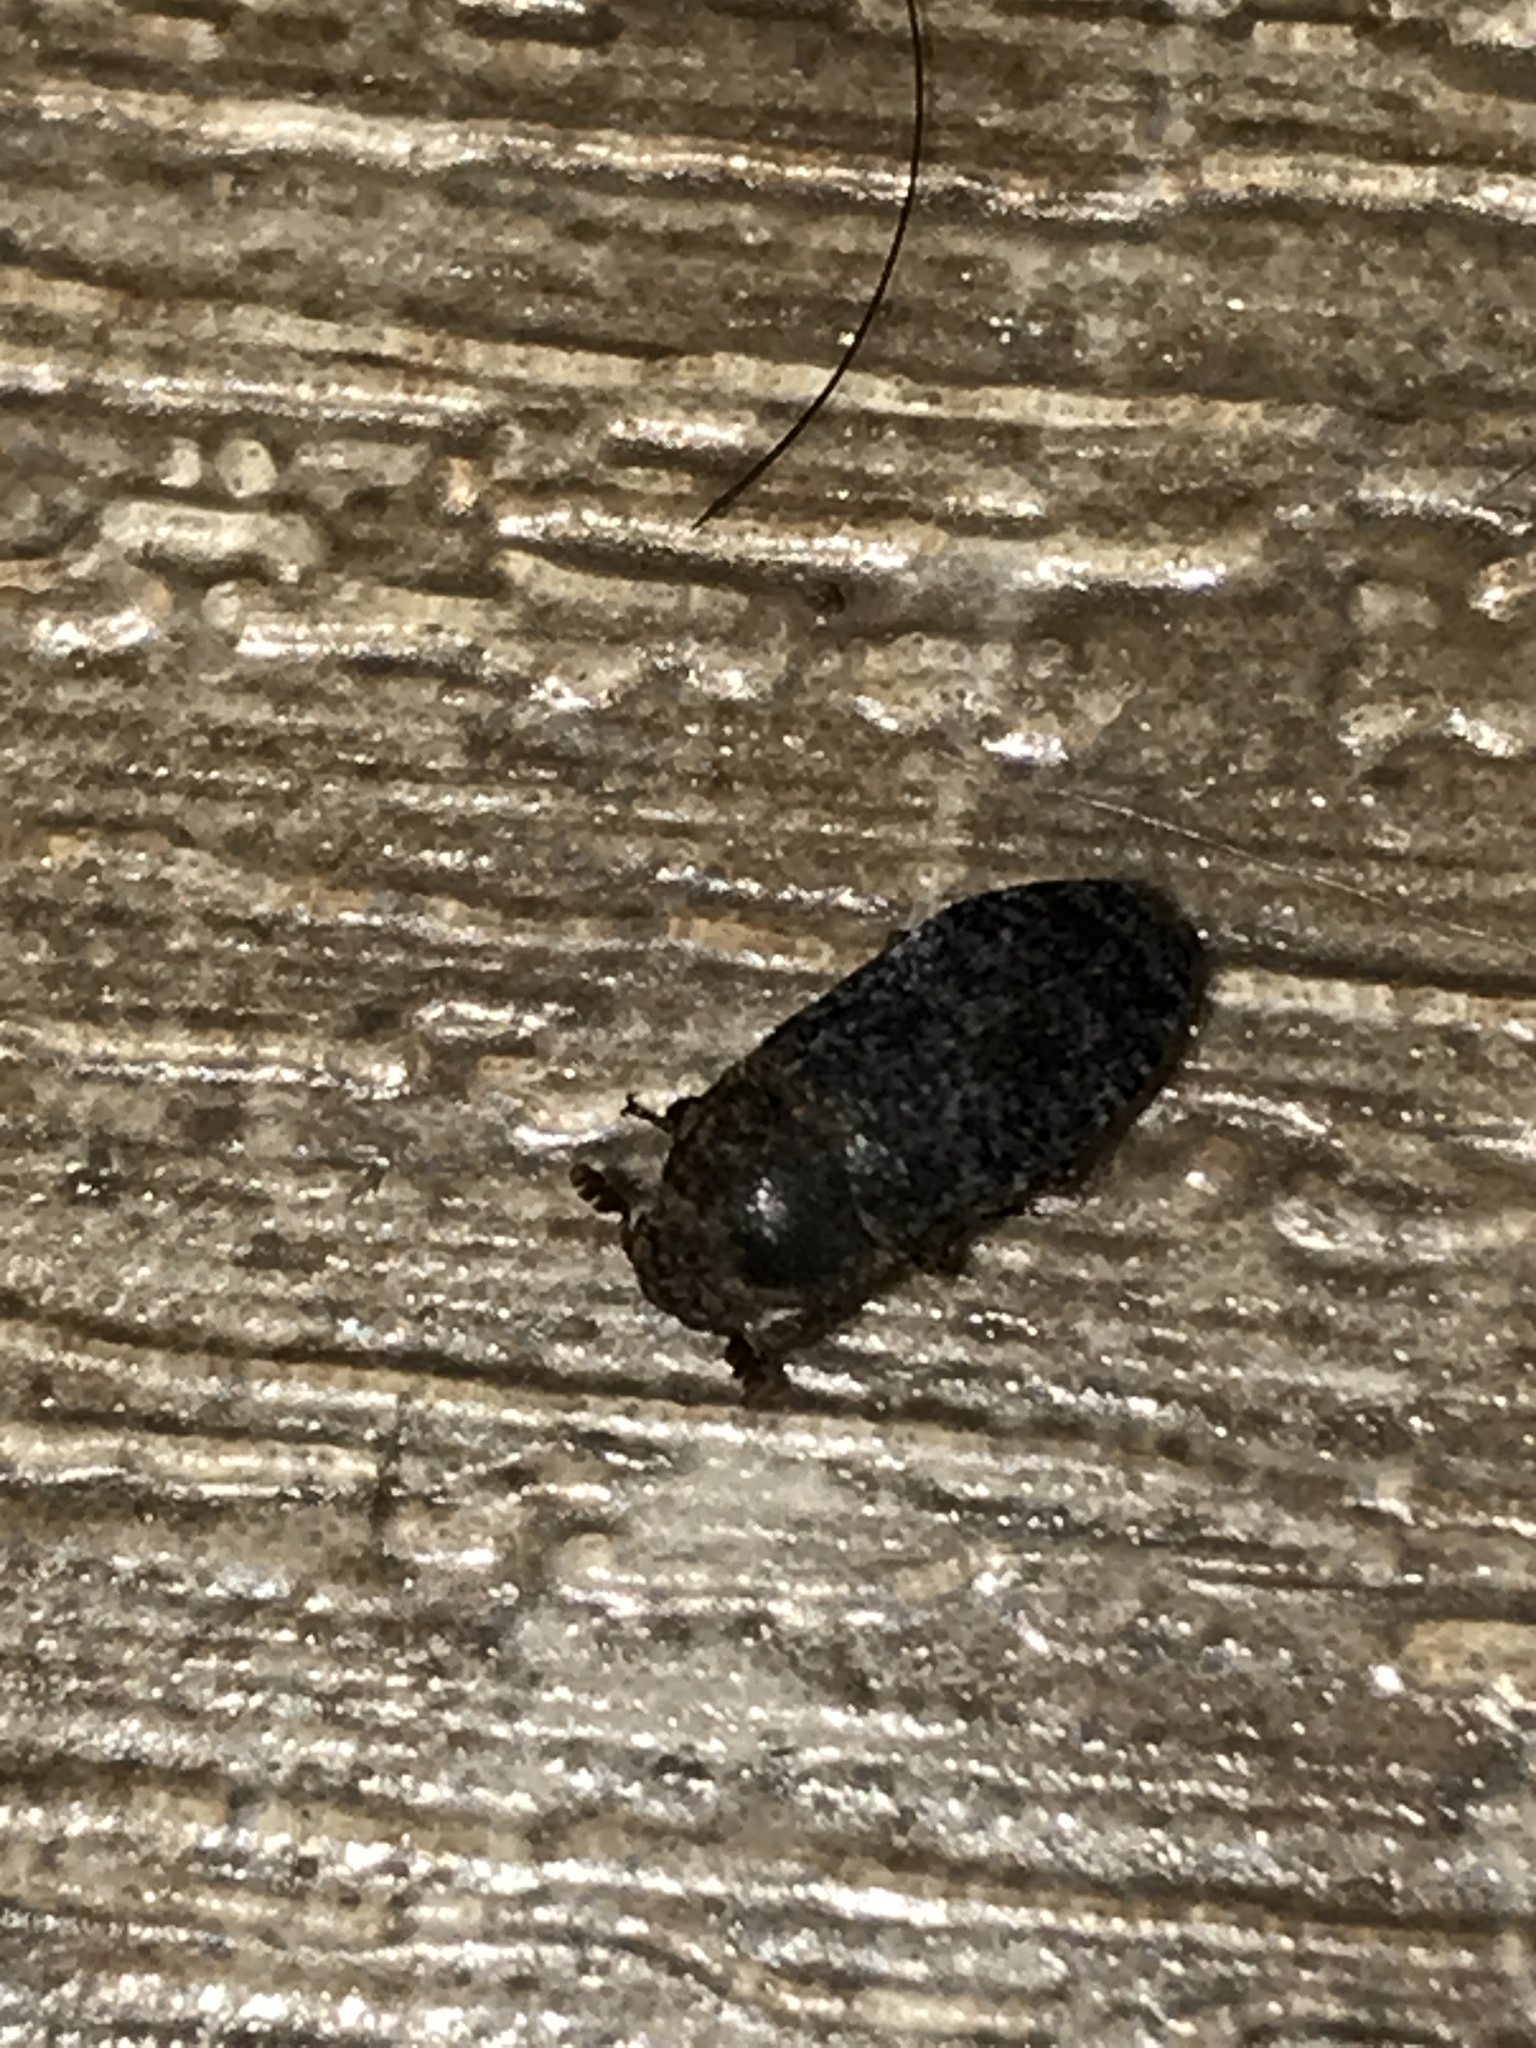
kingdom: Animalia
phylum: Arthropoda
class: Insecta
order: Coleoptera
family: Dermestidae
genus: Dermestes
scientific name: Dermestes undulatus
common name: Wavy carpet beetle
